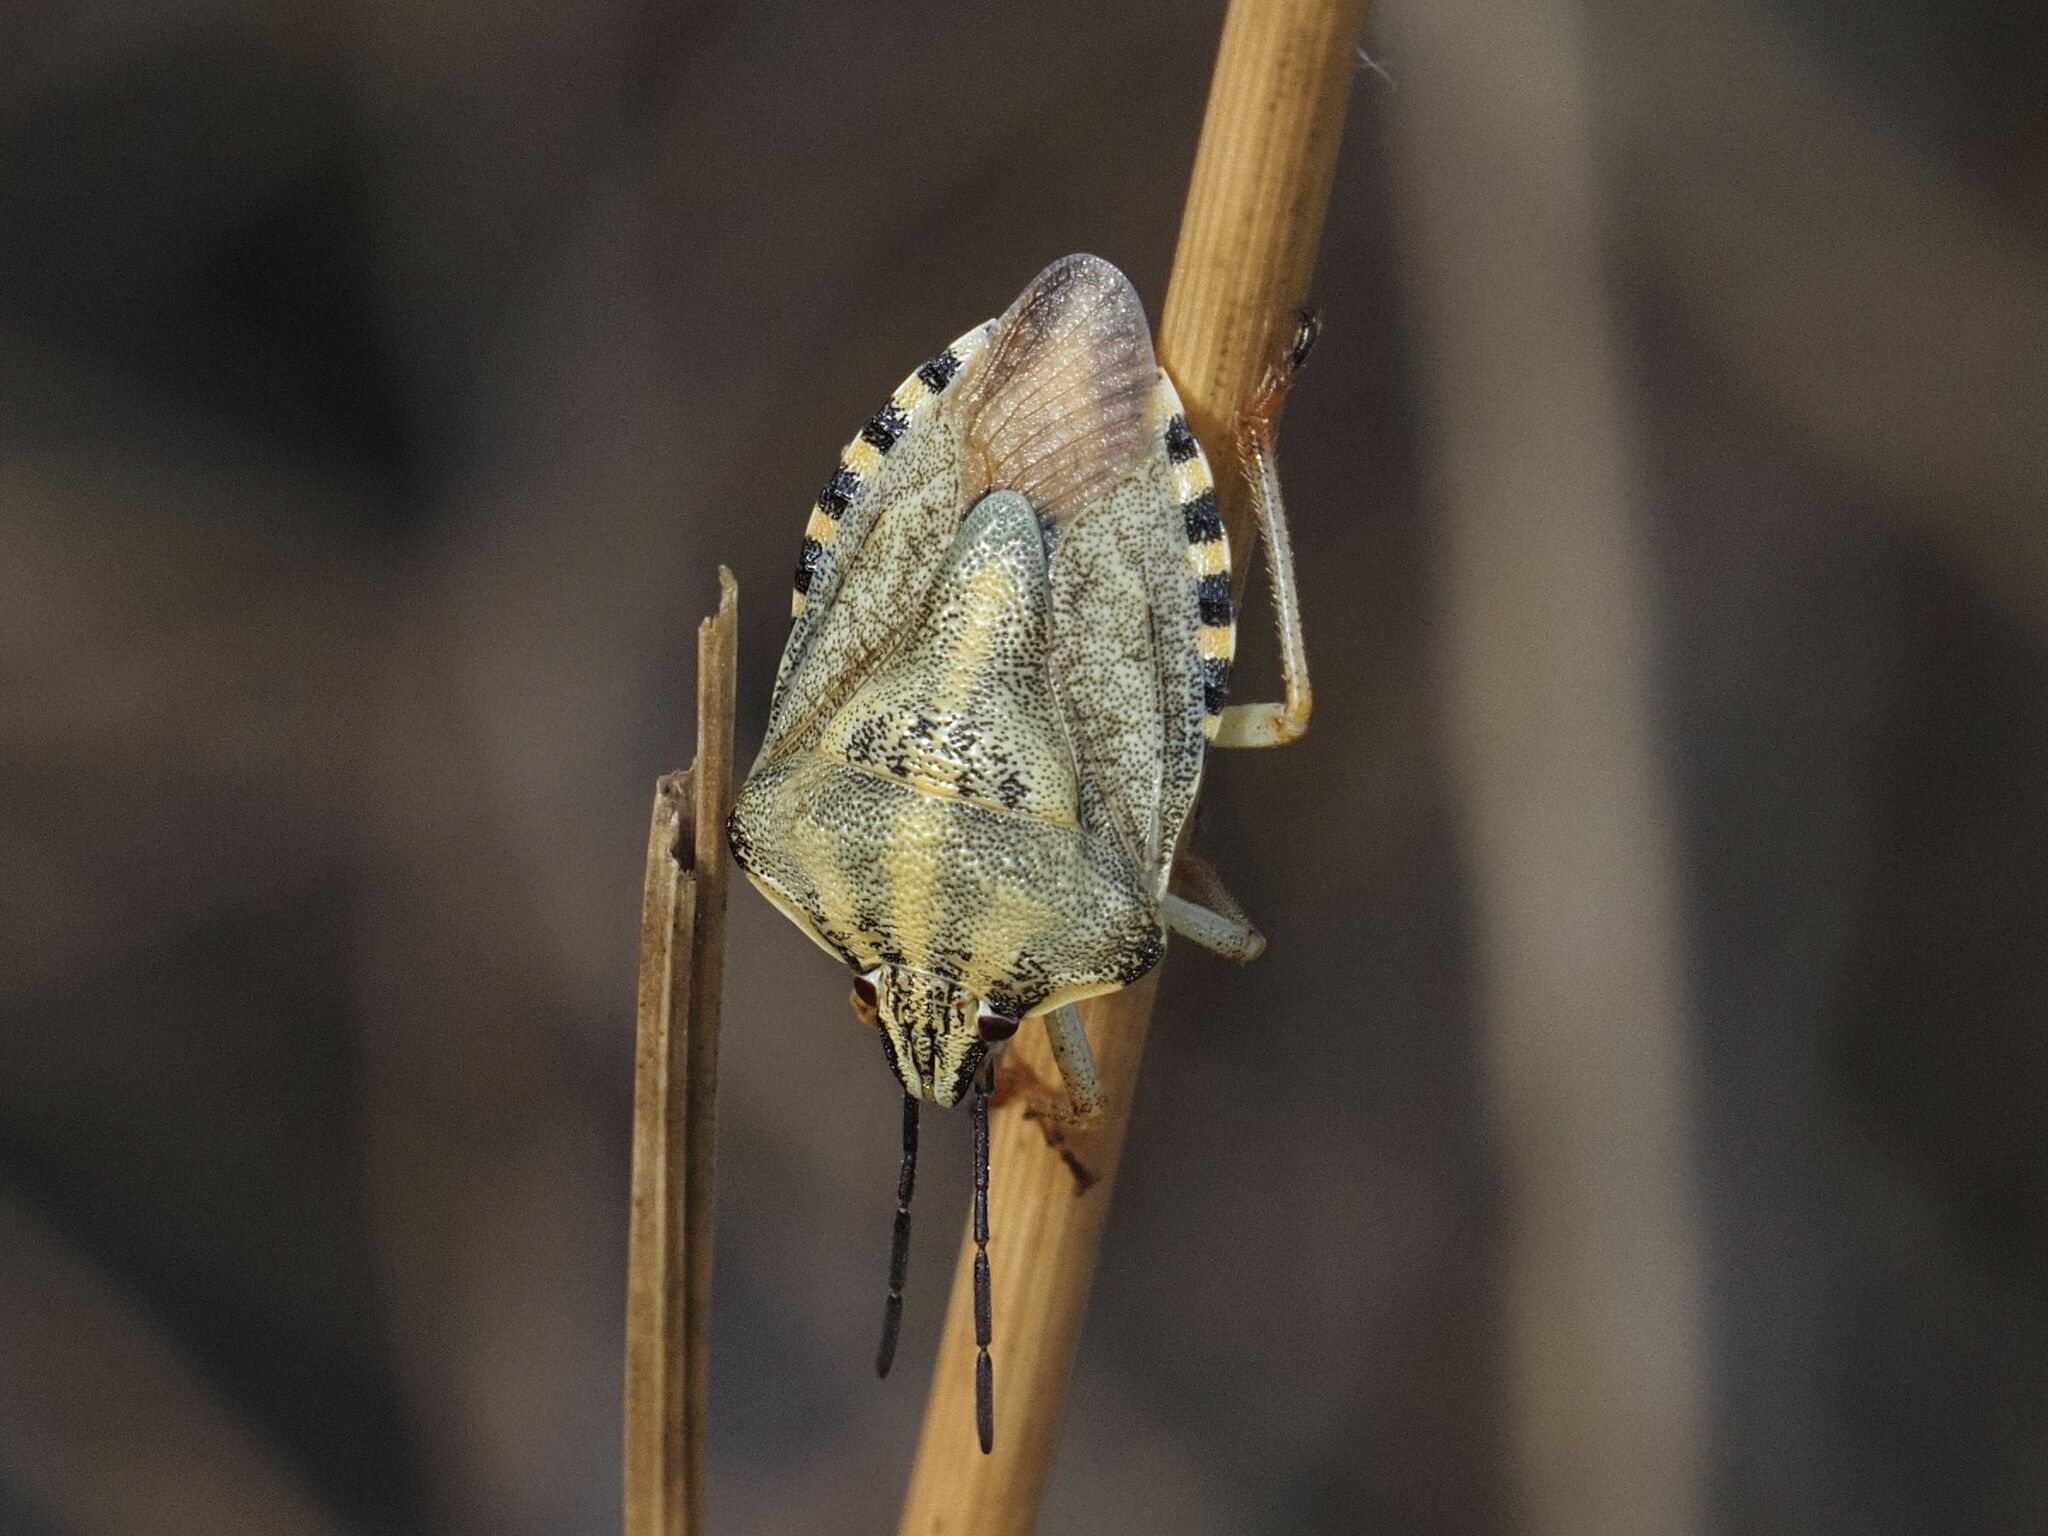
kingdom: Animalia
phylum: Arthropoda
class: Insecta
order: Hemiptera
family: Pentatomidae
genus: Carpocoris
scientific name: Carpocoris purpureipennis
